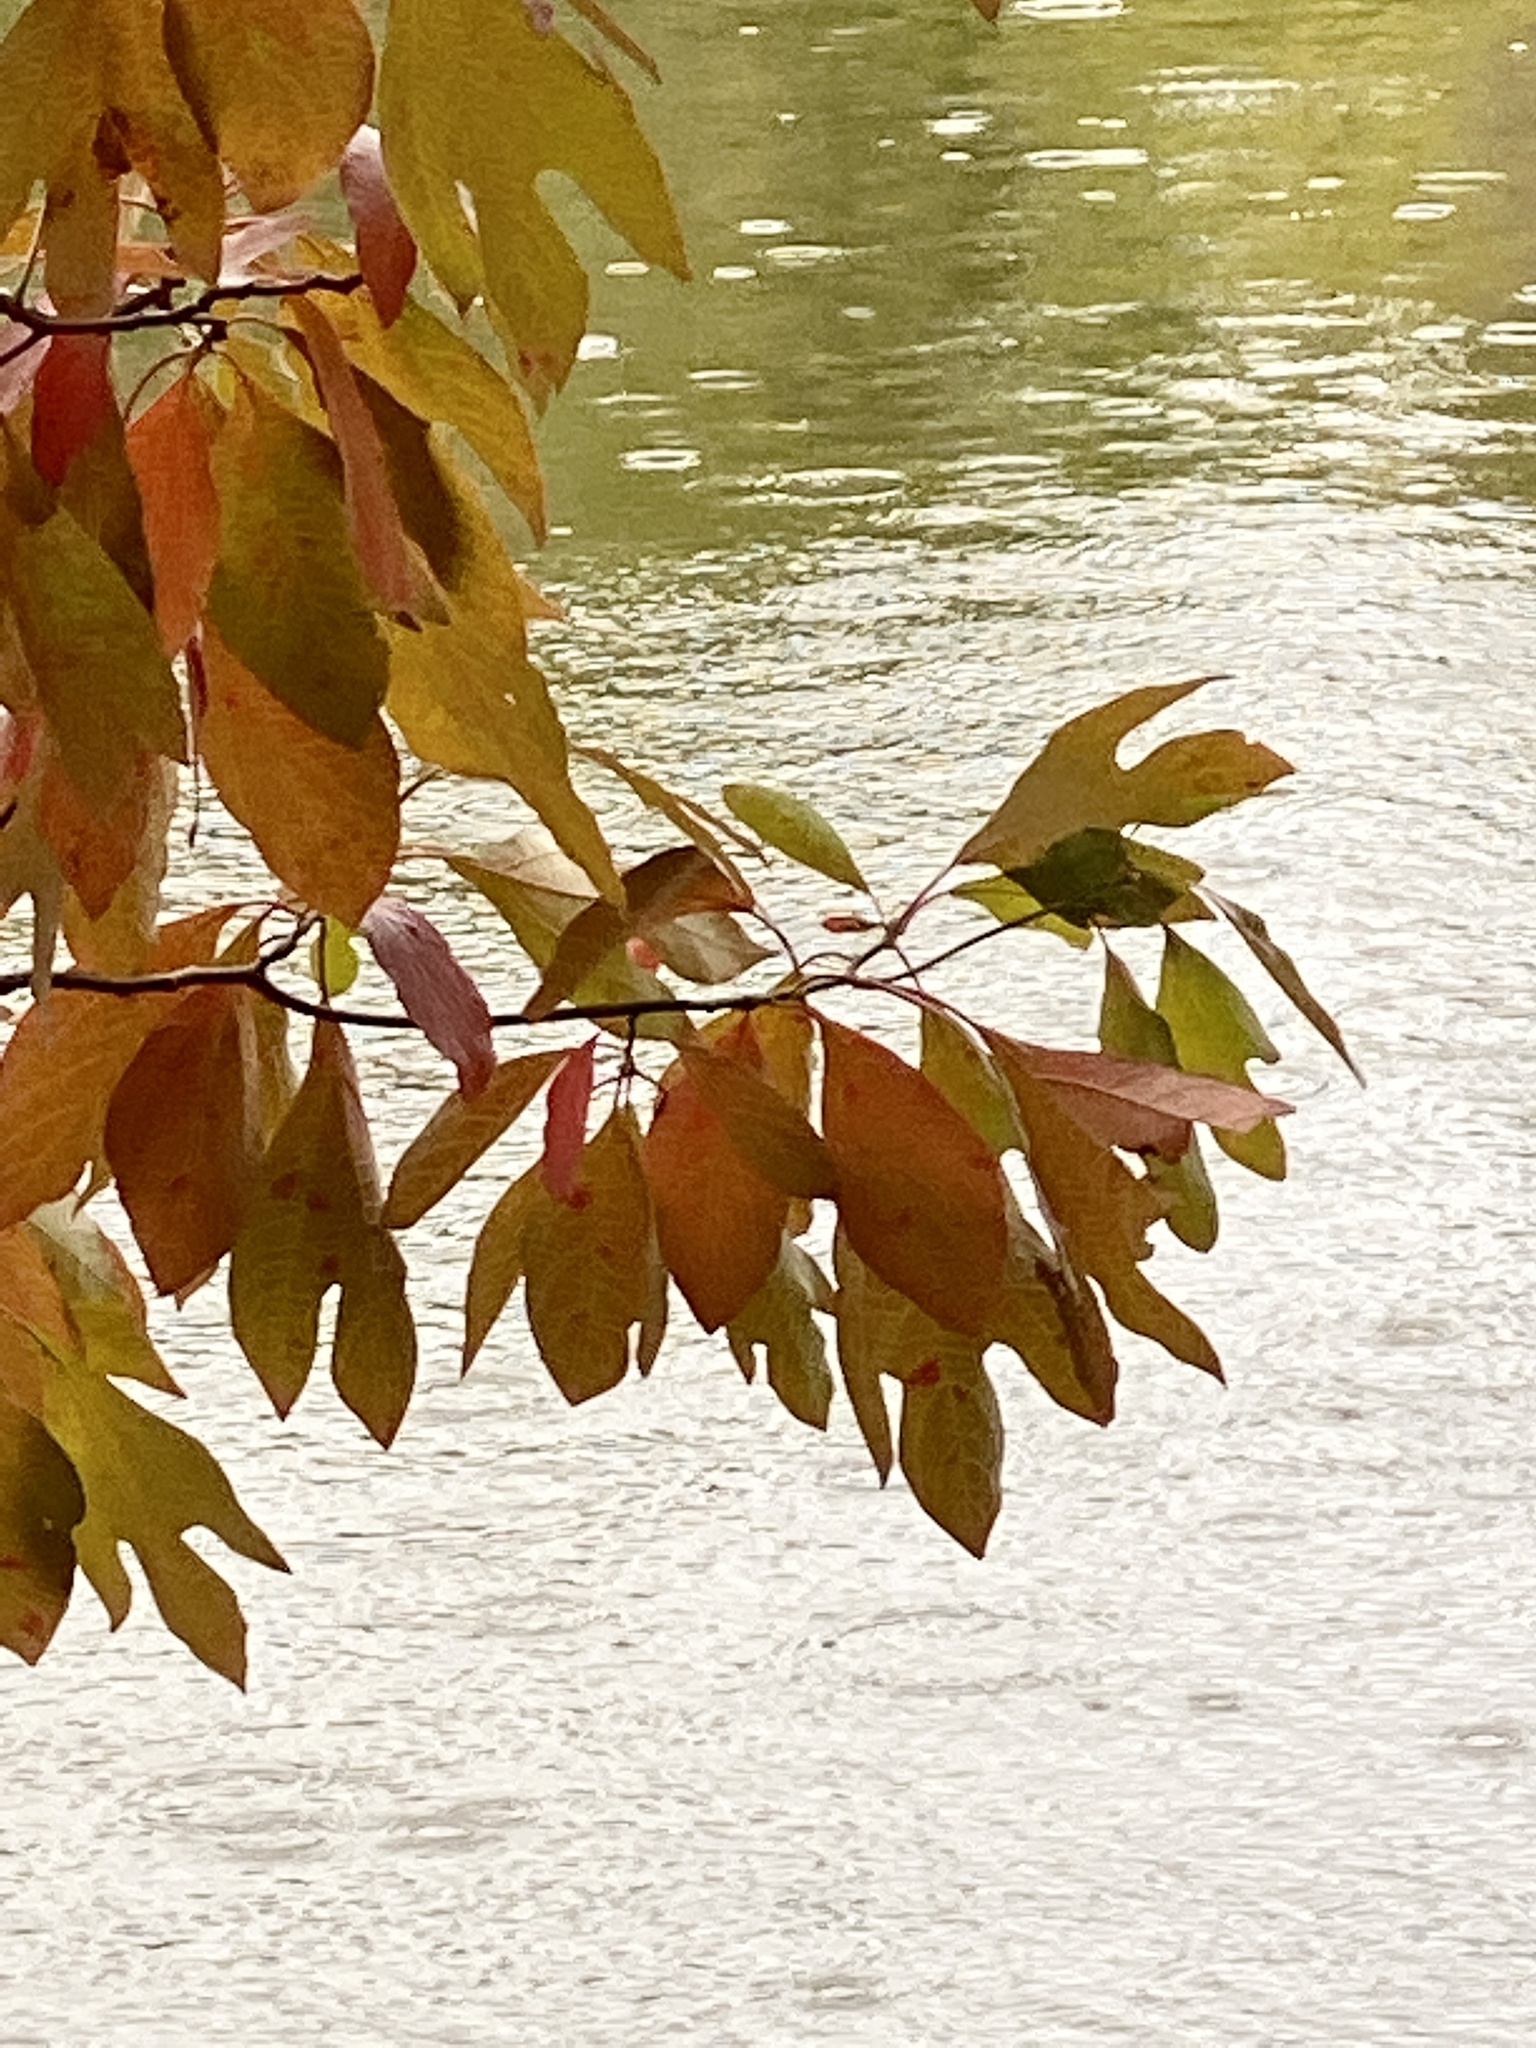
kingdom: Plantae
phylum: Tracheophyta
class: Magnoliopsida
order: Laurales
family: Lauraceae
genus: Sassafras
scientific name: Sassafras albidum
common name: Sassafras
